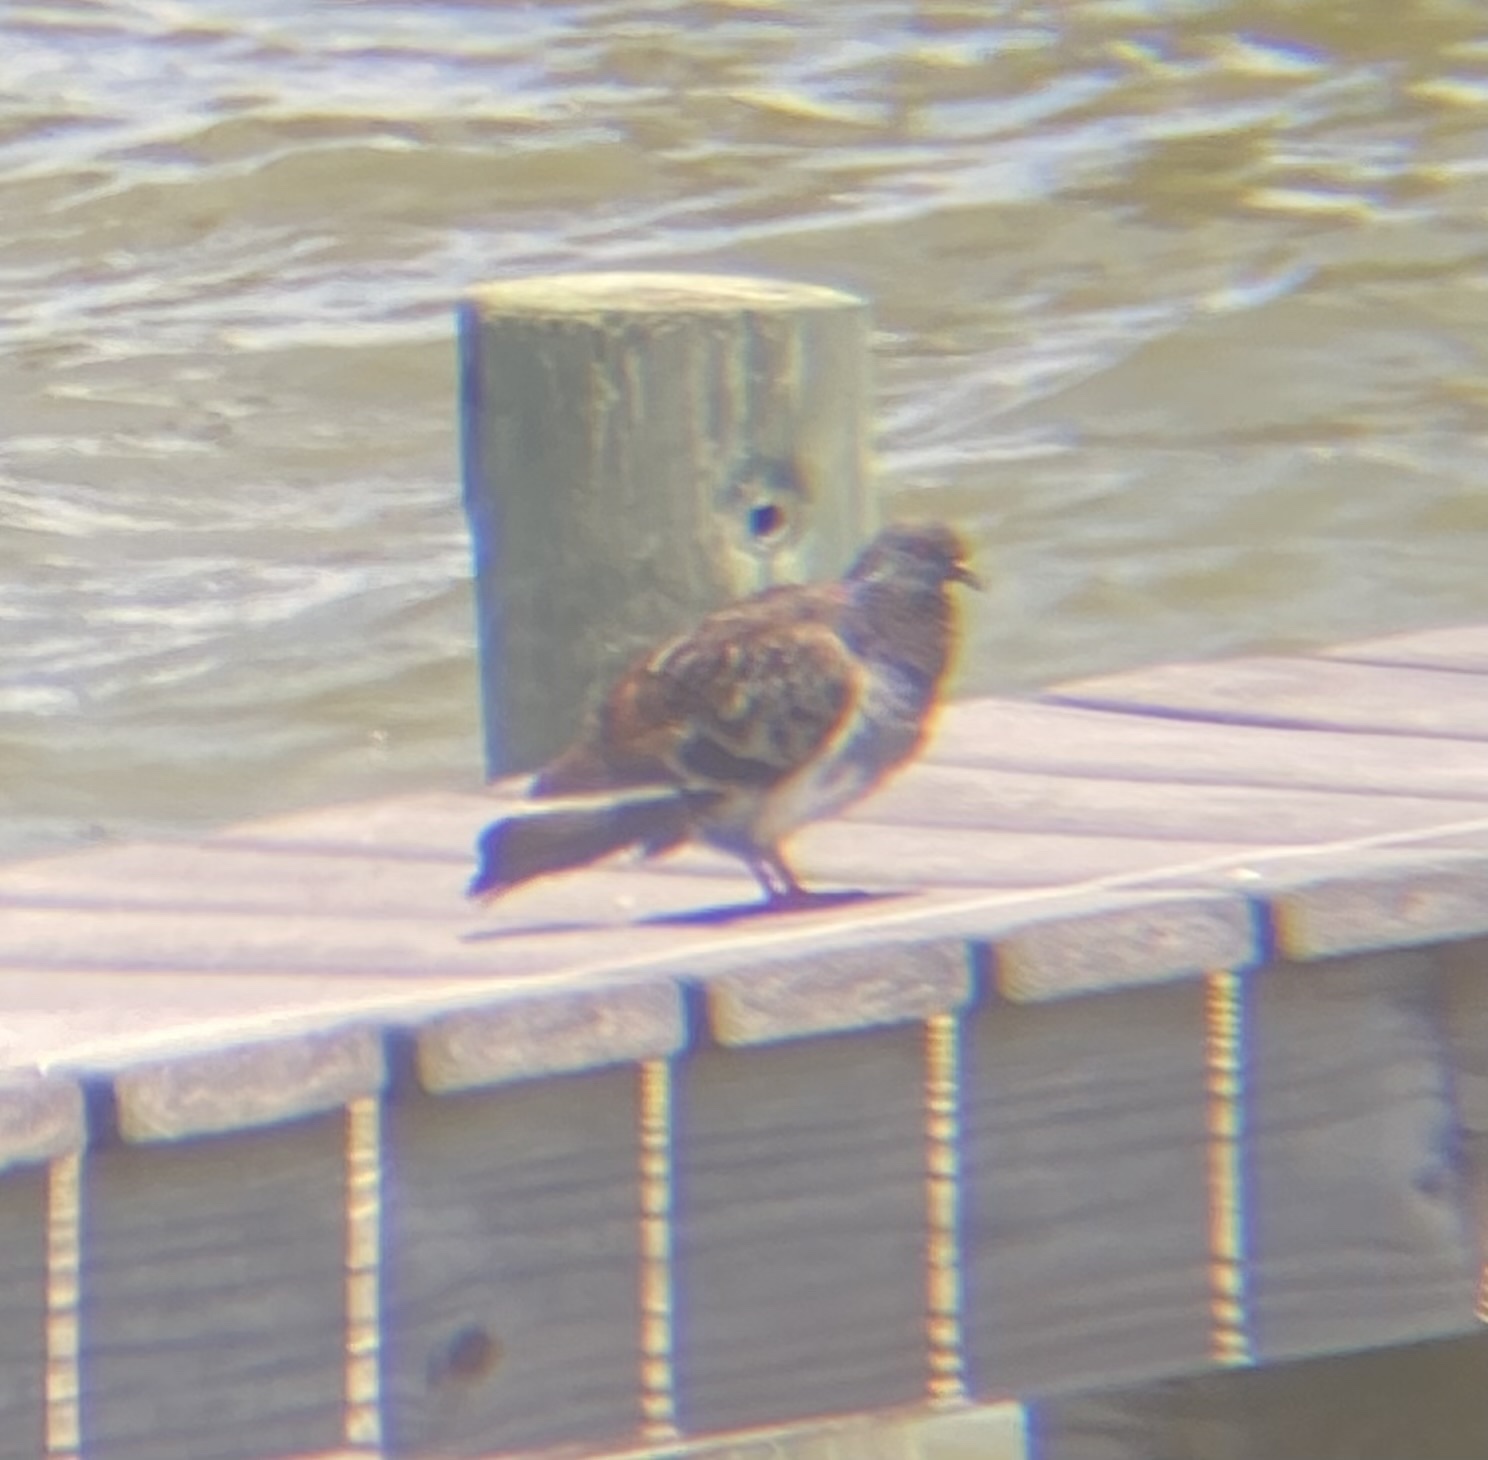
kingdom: Animalia
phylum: Chordata
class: Aves
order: Columbiformes
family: Columbidae
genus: Columba
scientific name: Columba livia
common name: Rock pigeon
